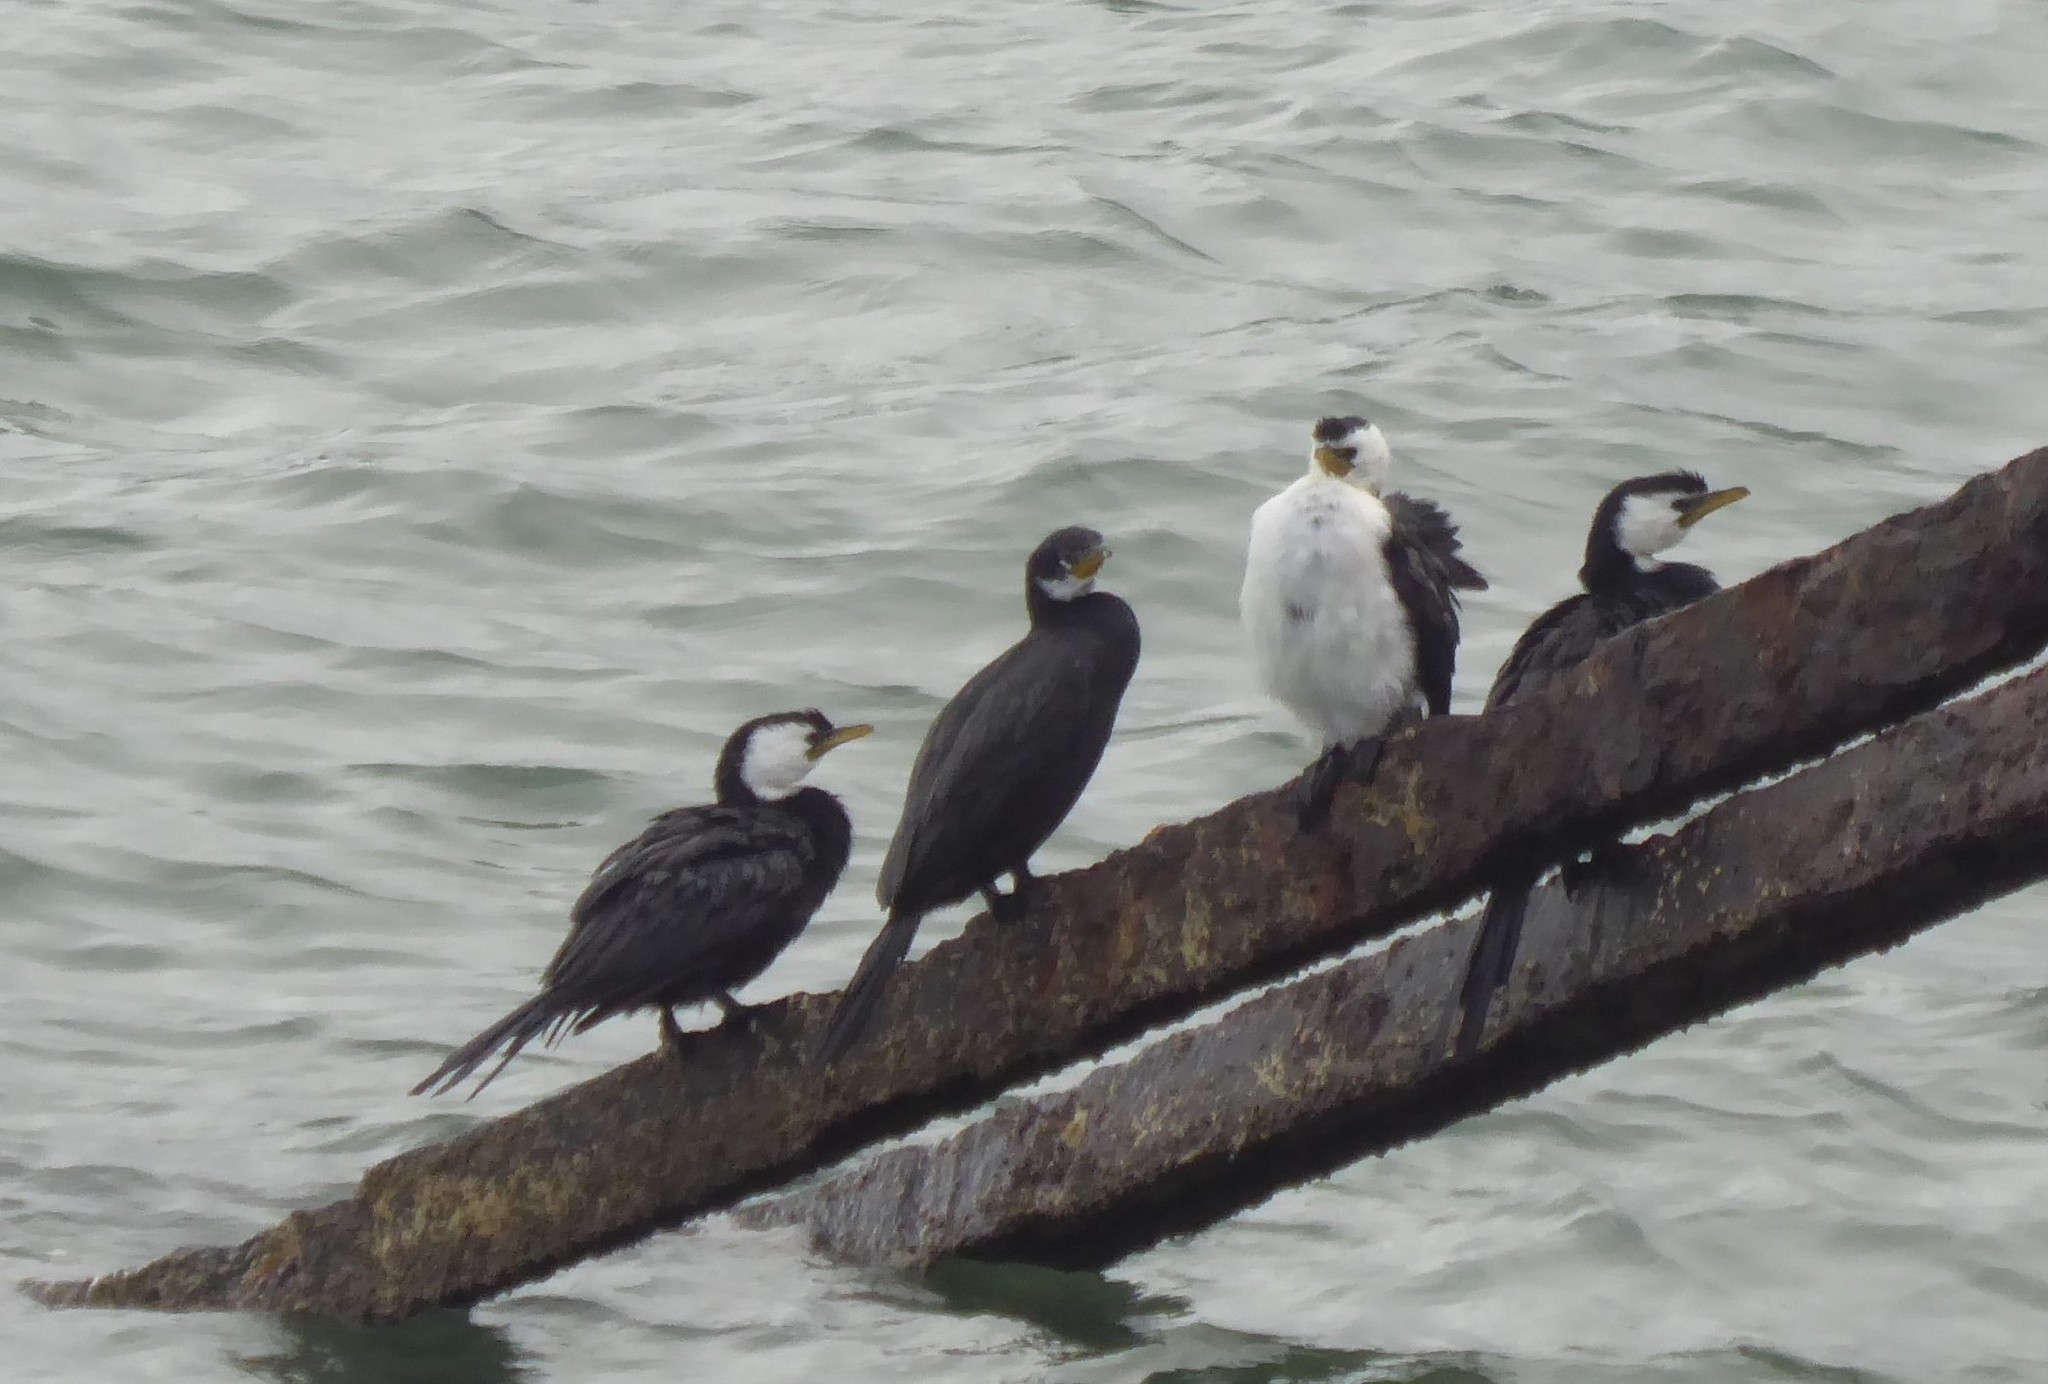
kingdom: Animalia
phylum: Chordata
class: Aves
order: Suliformes
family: Phalacrocoracidae
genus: Microcarbo
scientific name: Microcarbo melanoleucos
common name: Little pied cormorant
